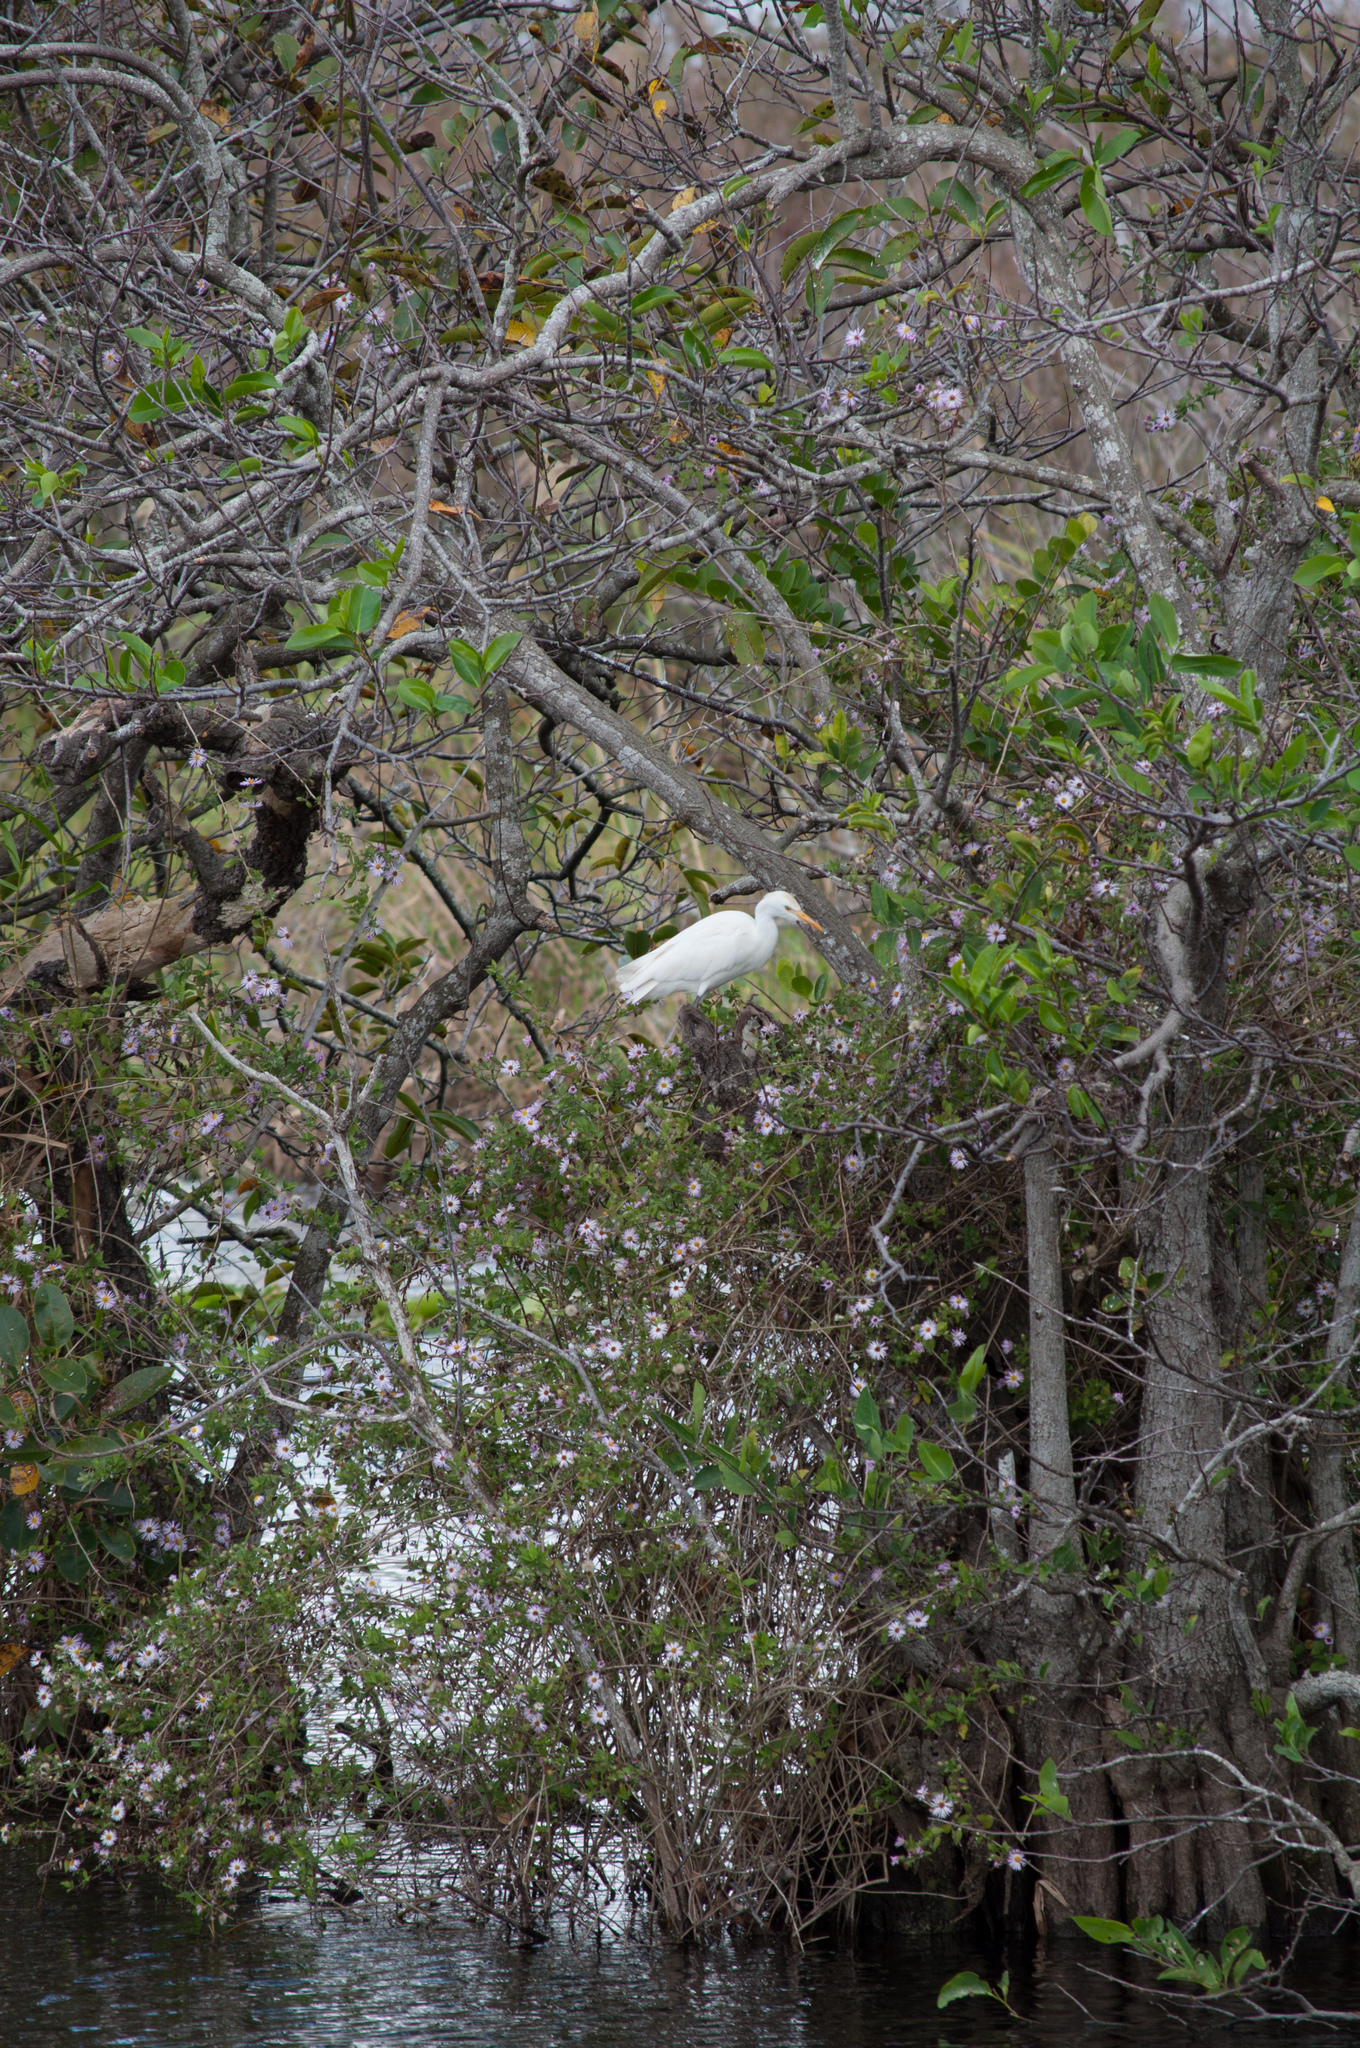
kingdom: Animalia
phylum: Chordata
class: Aves
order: Pelecaniformes
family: Ardeidae
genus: Bubulcus
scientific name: Bubulcus ibis
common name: Cattle egret
